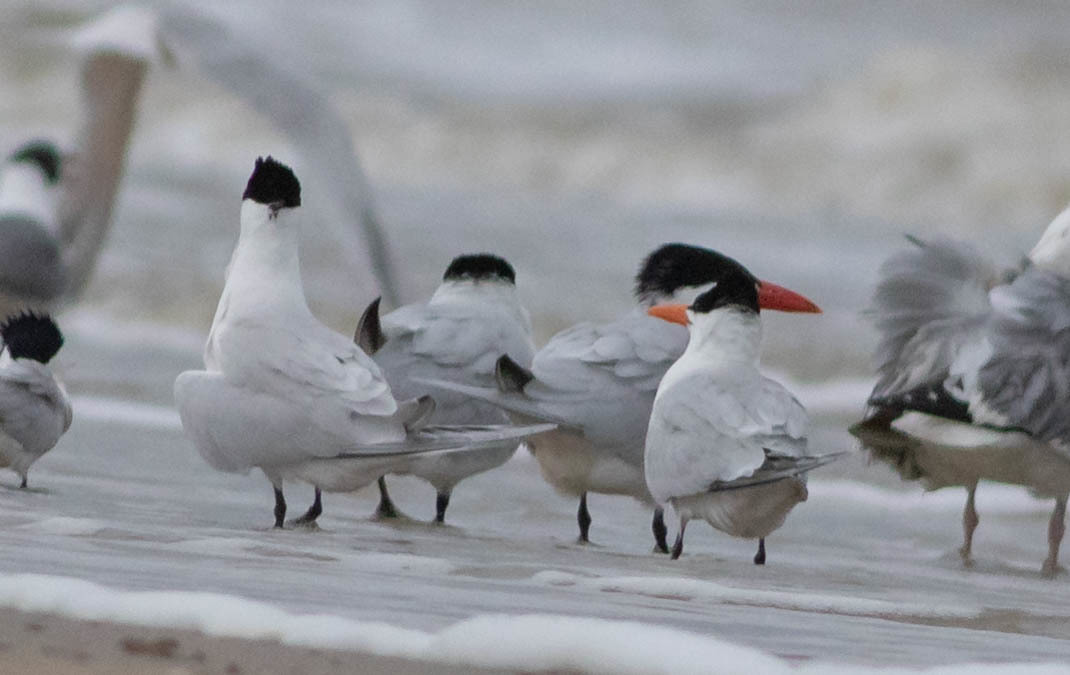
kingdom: Animalia
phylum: Chordata
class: Aves
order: Charadriiformes
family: Laridae
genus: Thalasseus
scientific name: Thalasseus maximus
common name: Royal tern
